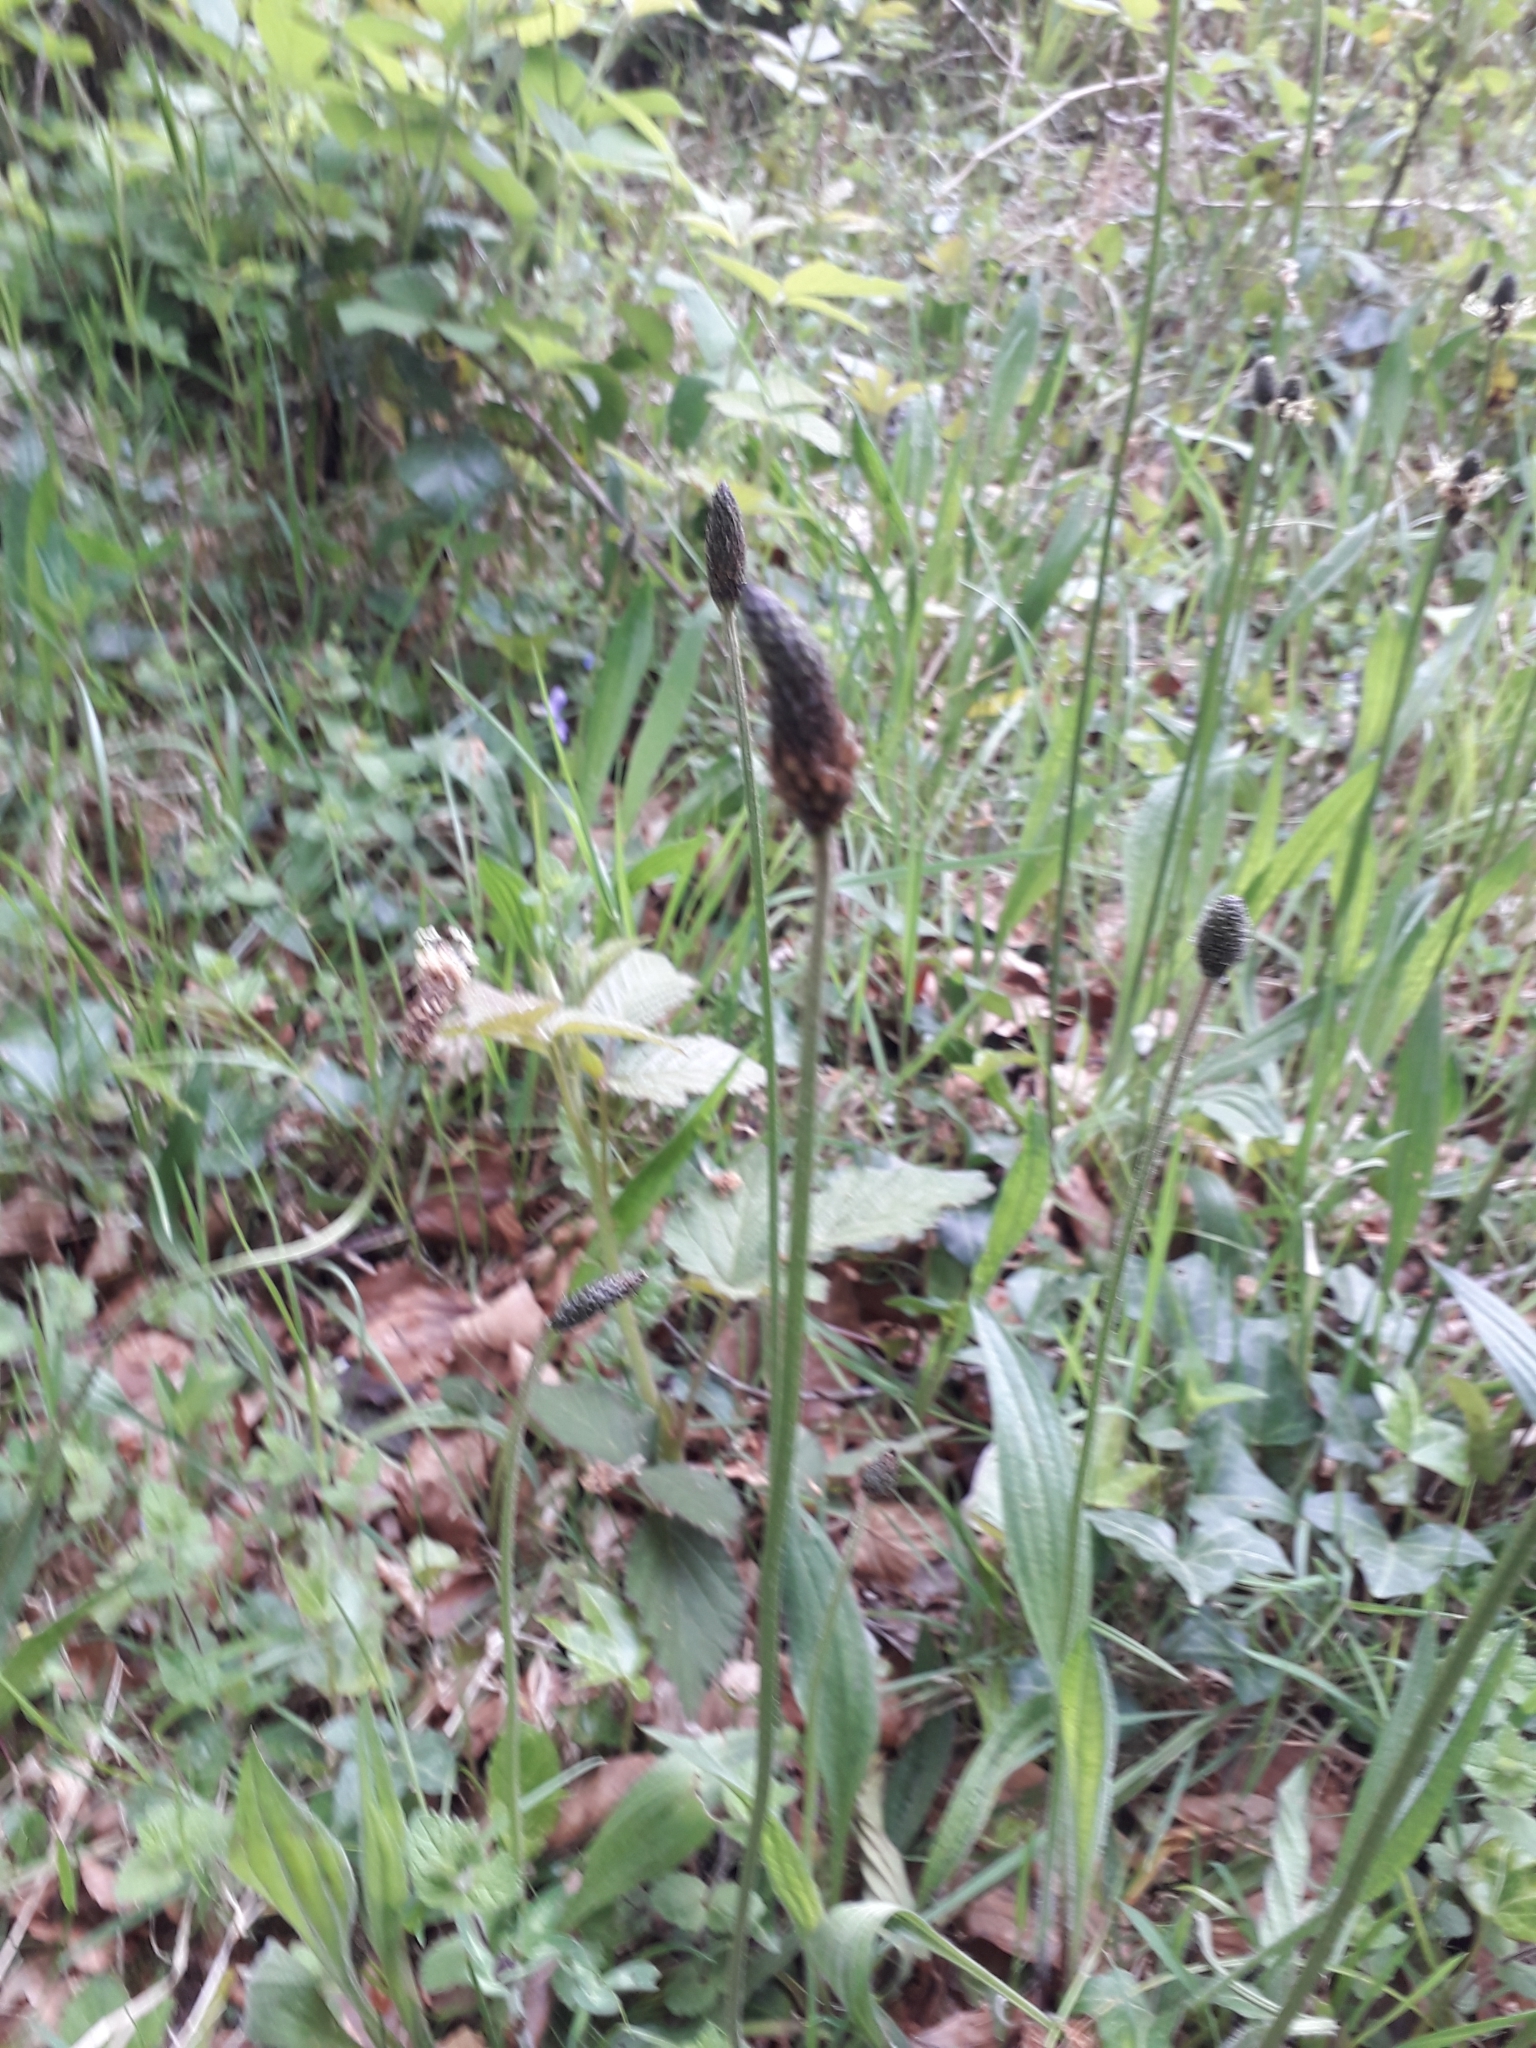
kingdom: Plantae
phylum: Tracheophyta
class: Magnoliopsida
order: Lamiales
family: Plantaginaceae
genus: Plantago
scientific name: Plantago lanceolata
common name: Ribwort plantain
